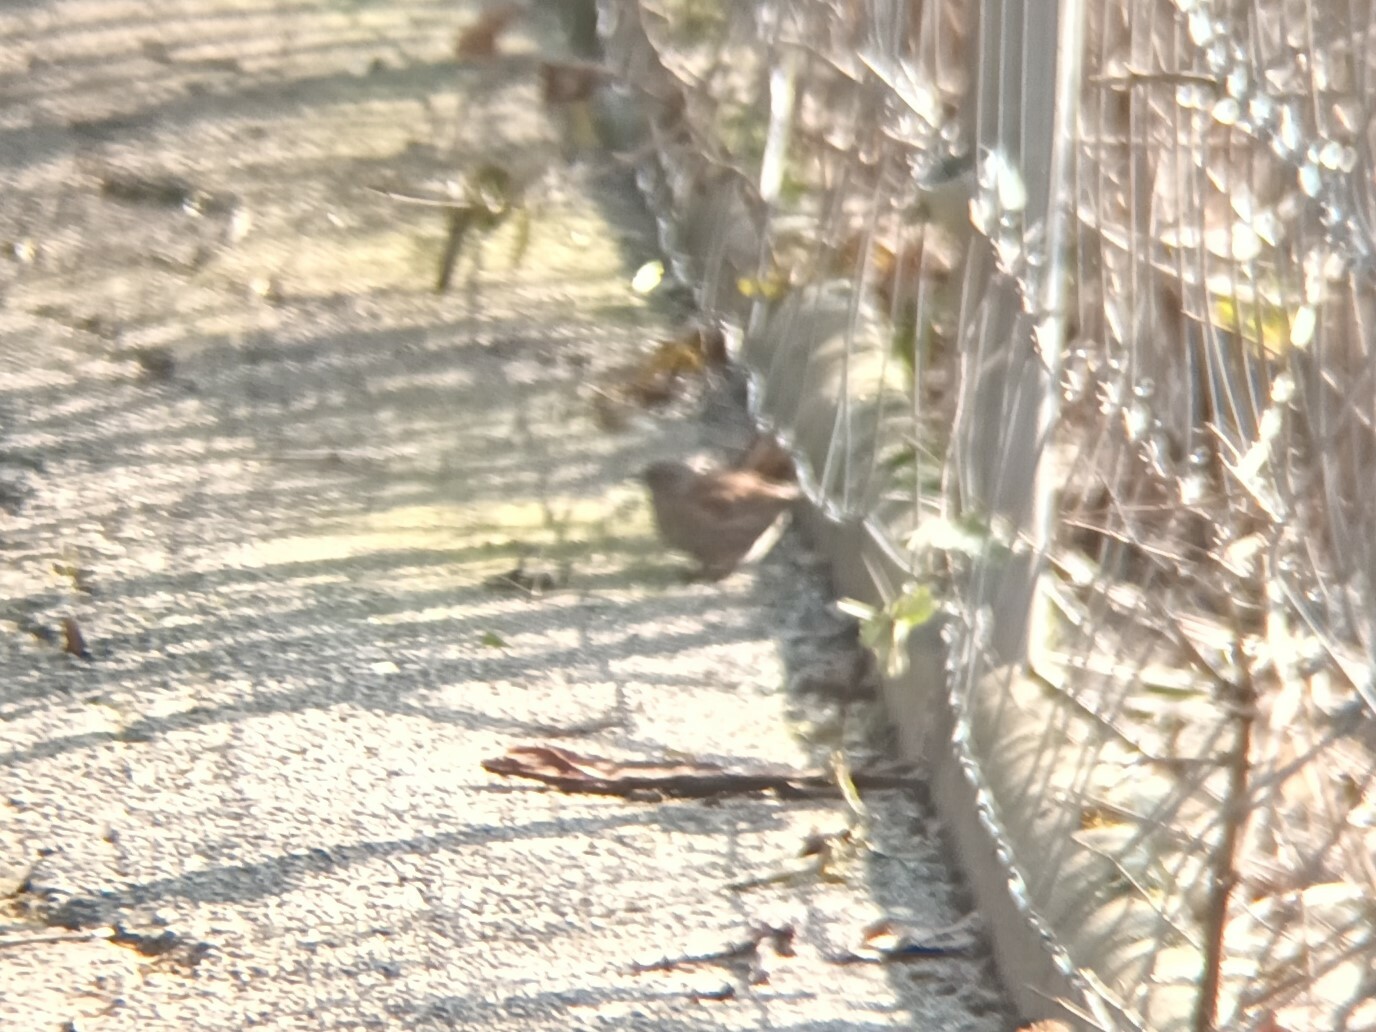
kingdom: Animalia
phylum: Chordata
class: Aves
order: Passeriformes
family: Prunellidae
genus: Prunella
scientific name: Prunella modularis
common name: Dunnock
